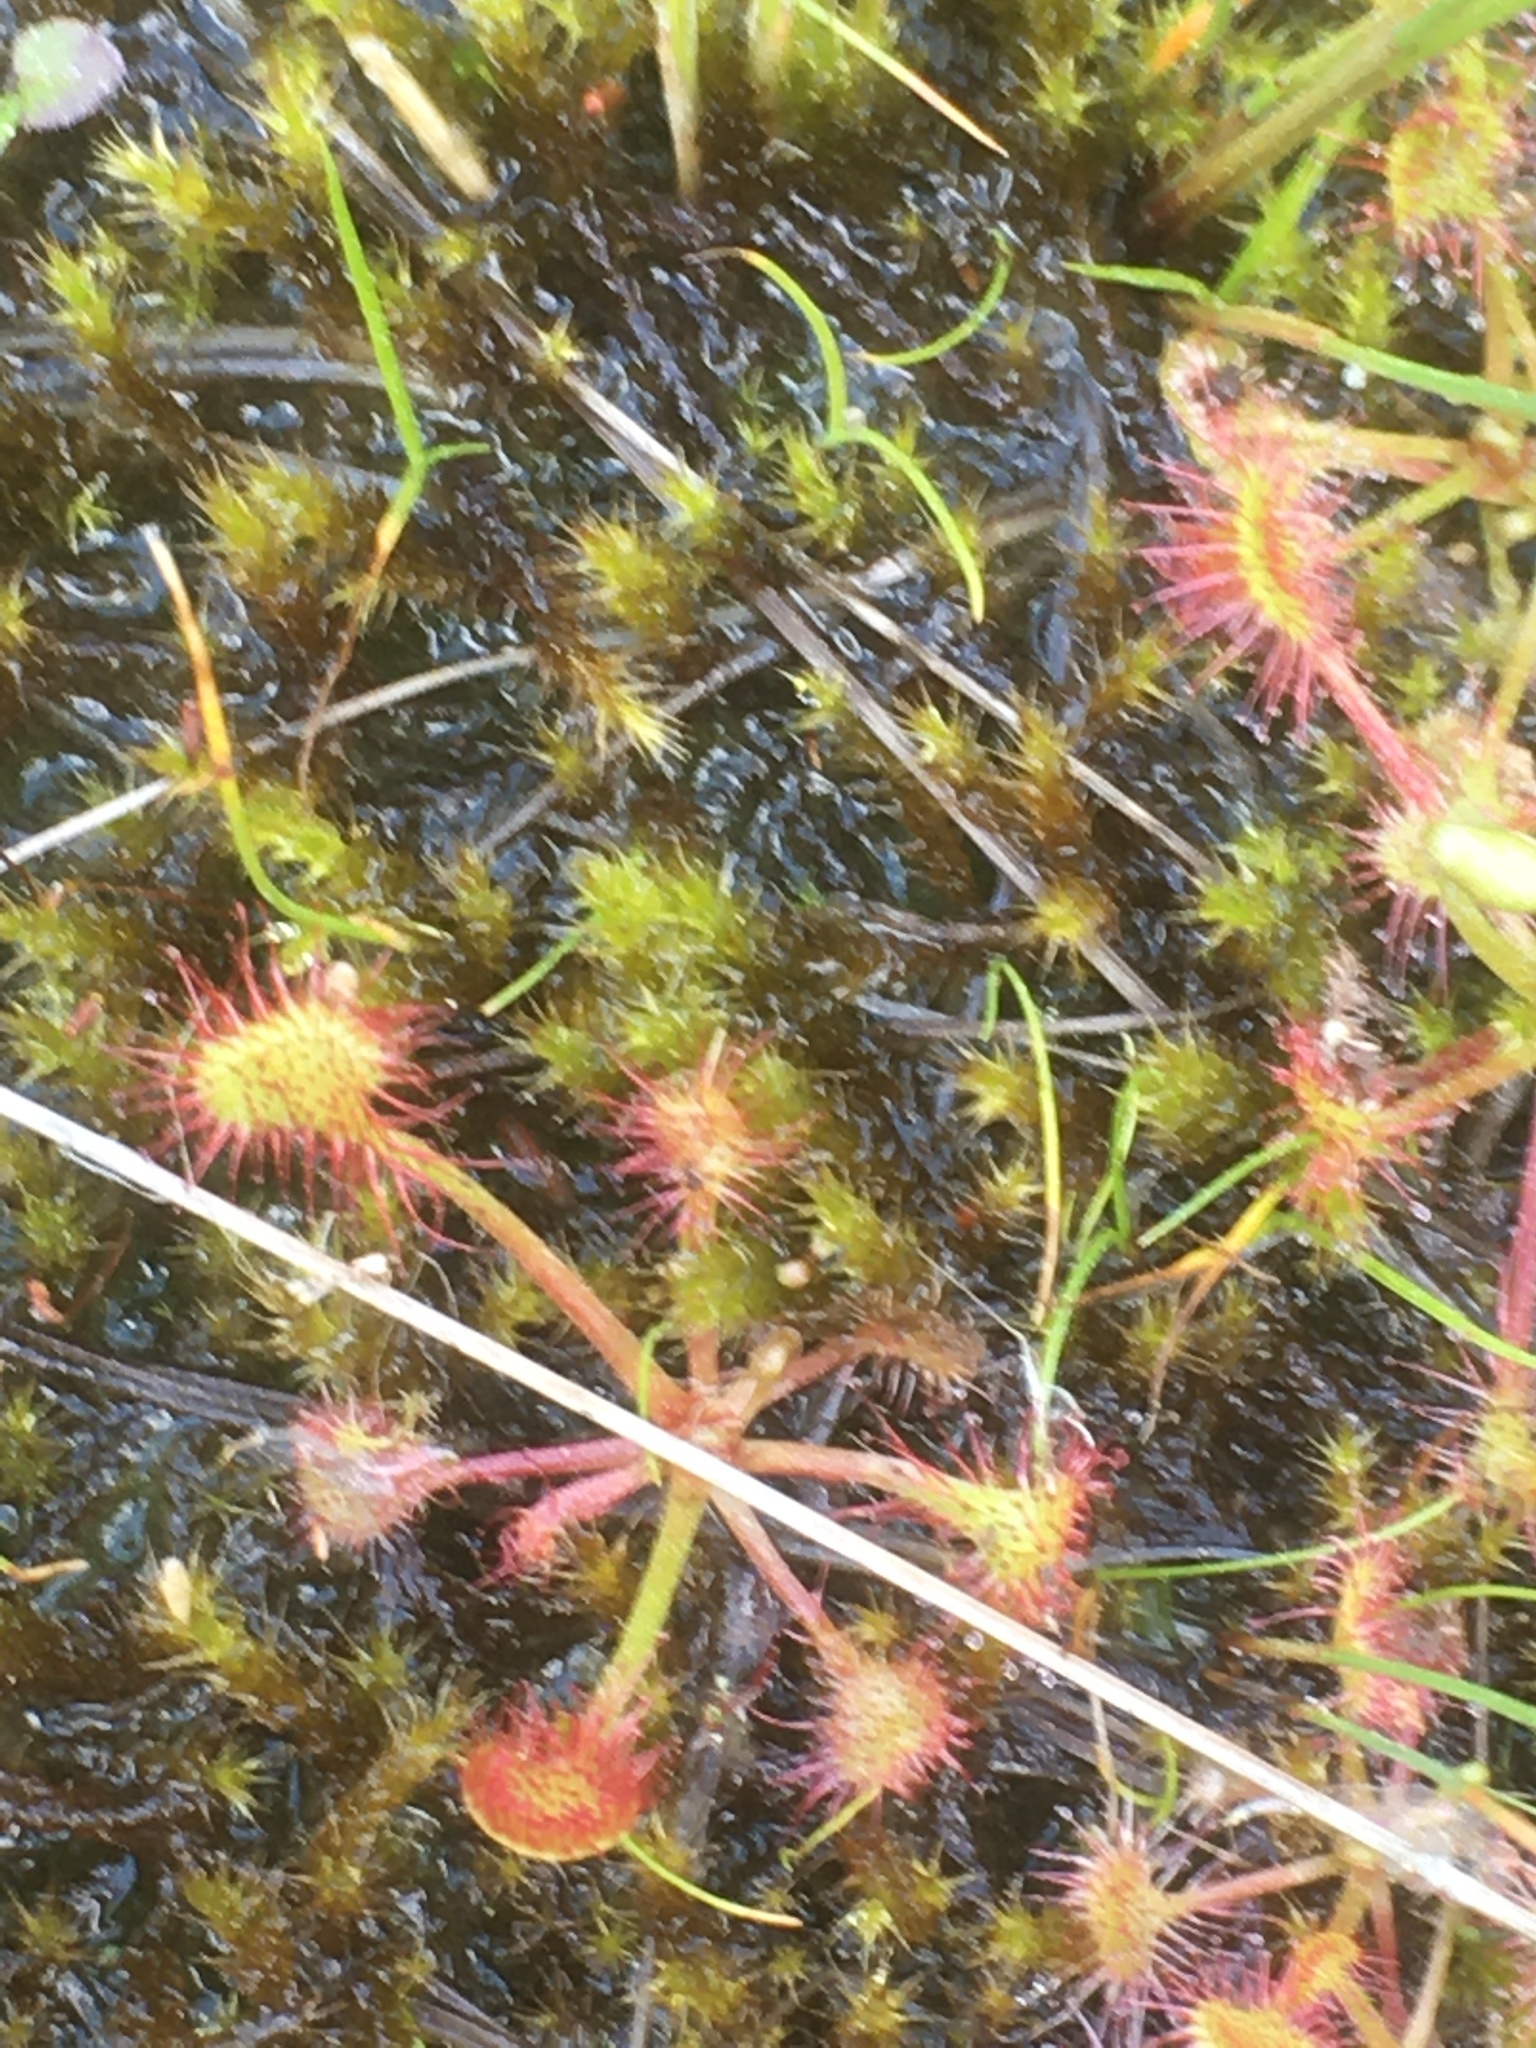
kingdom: Plantae
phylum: Tracheophyta
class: Magnoliopsida
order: Caryophyllales
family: Droseraceae
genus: Drosera
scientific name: Drosera rotundifolia
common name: Round-leaved sundew
